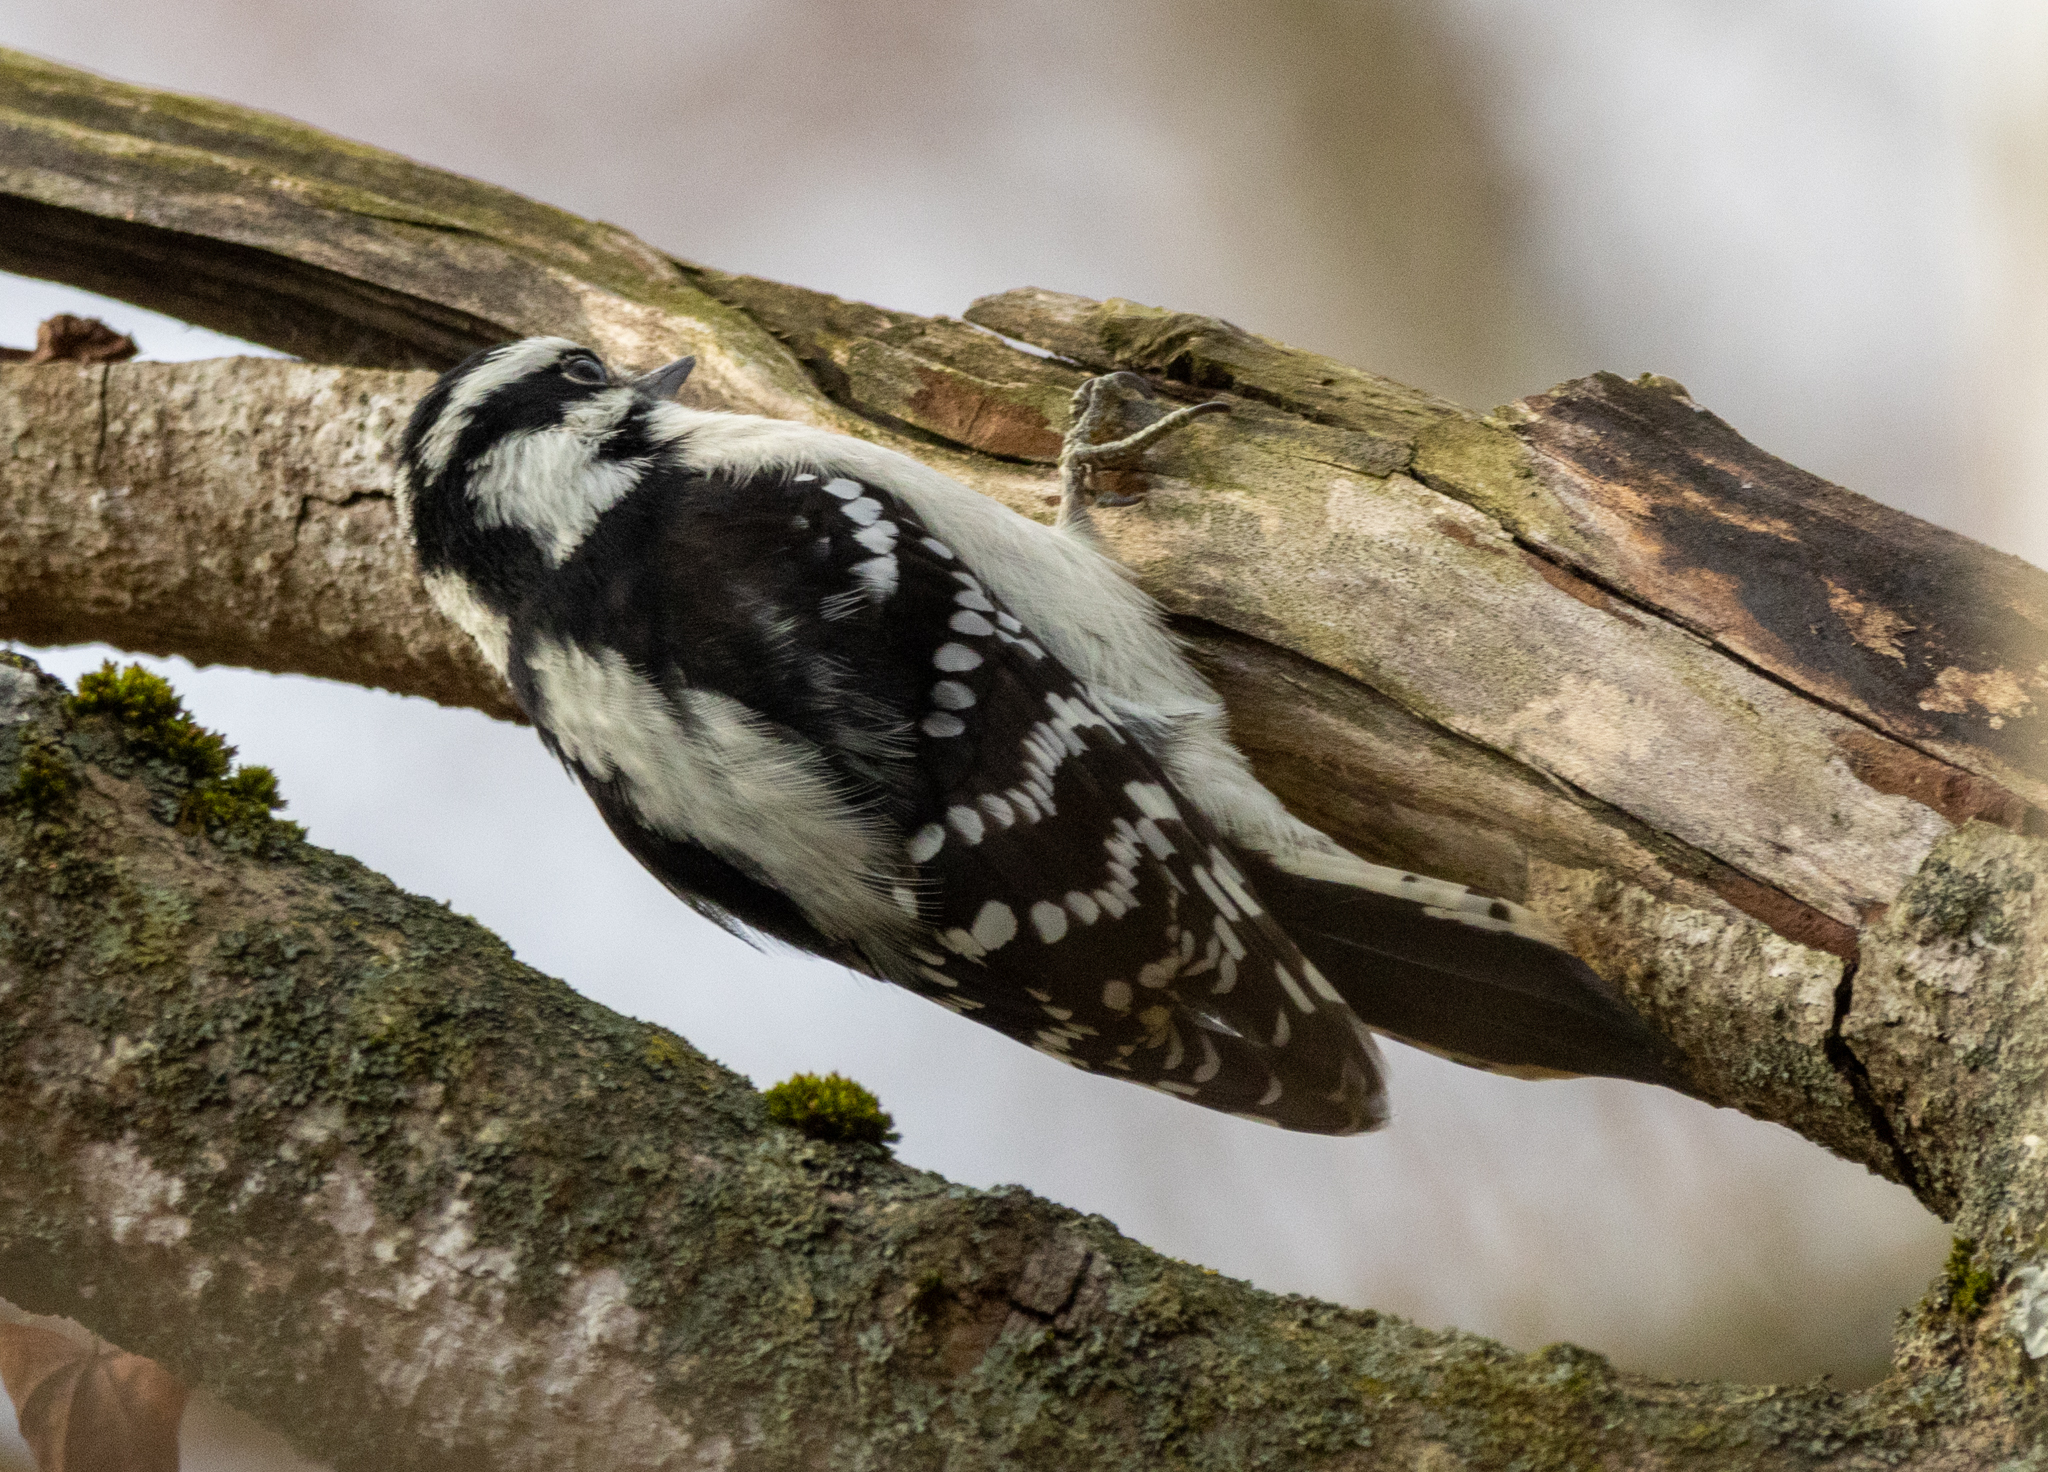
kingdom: Animalia
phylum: Chordata
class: Aves
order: Piciformes
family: Picidae
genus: Dryobates
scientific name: Dryobates pubescens
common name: Downy woodpecker
